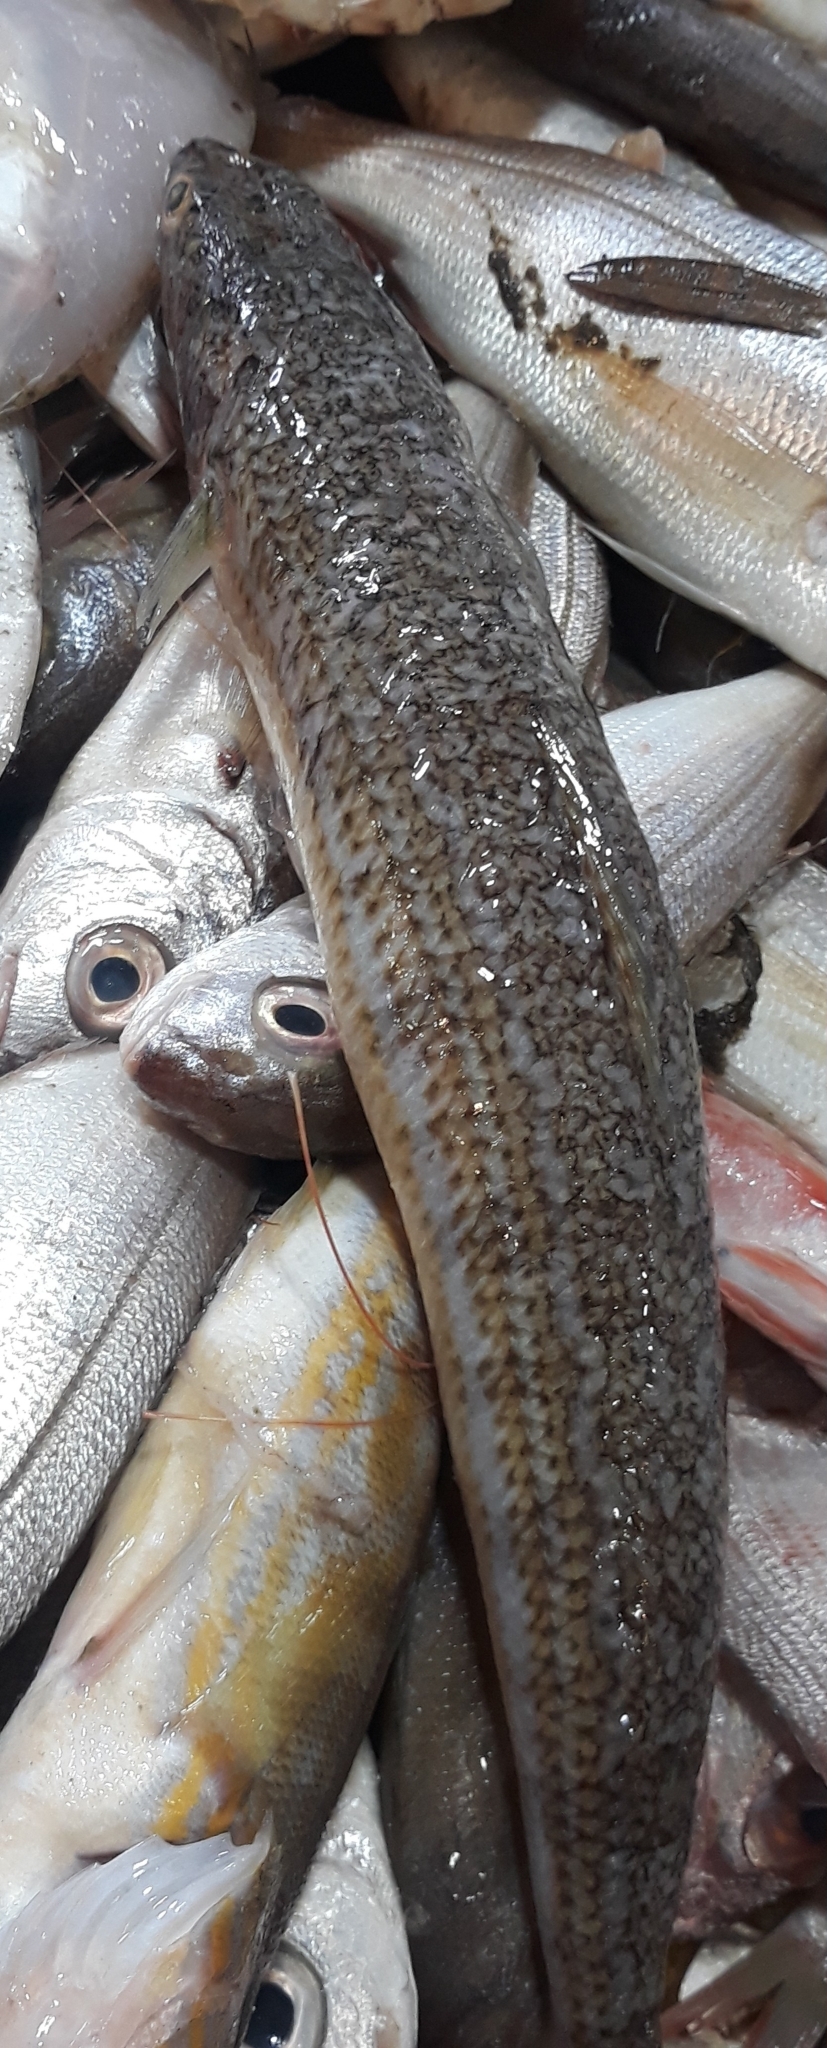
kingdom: Animalia
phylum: Chordata
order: Aulopiformes
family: Synodontidae
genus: Synodus
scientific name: Synodus saurus
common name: Atlantic lizardfish
